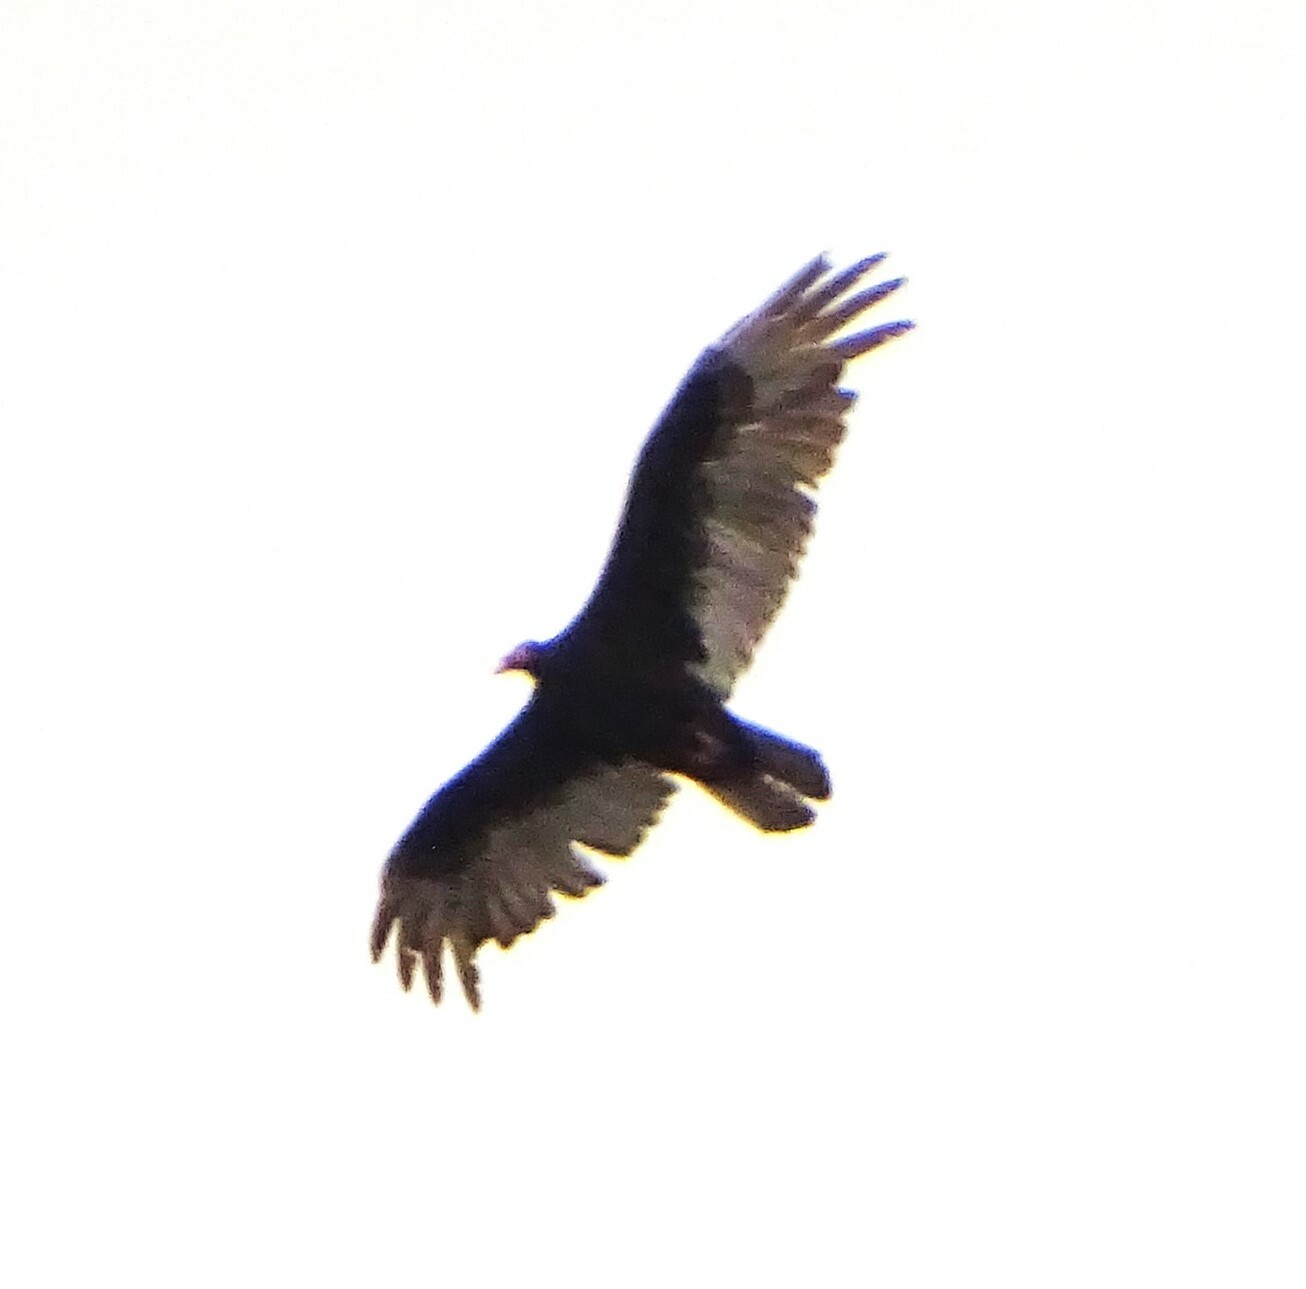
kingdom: Animalia
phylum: Chordata
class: Aves
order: Accipitriformes
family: Cathartidae
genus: Cathartes
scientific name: Cathartes aura
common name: Turkey vulture
